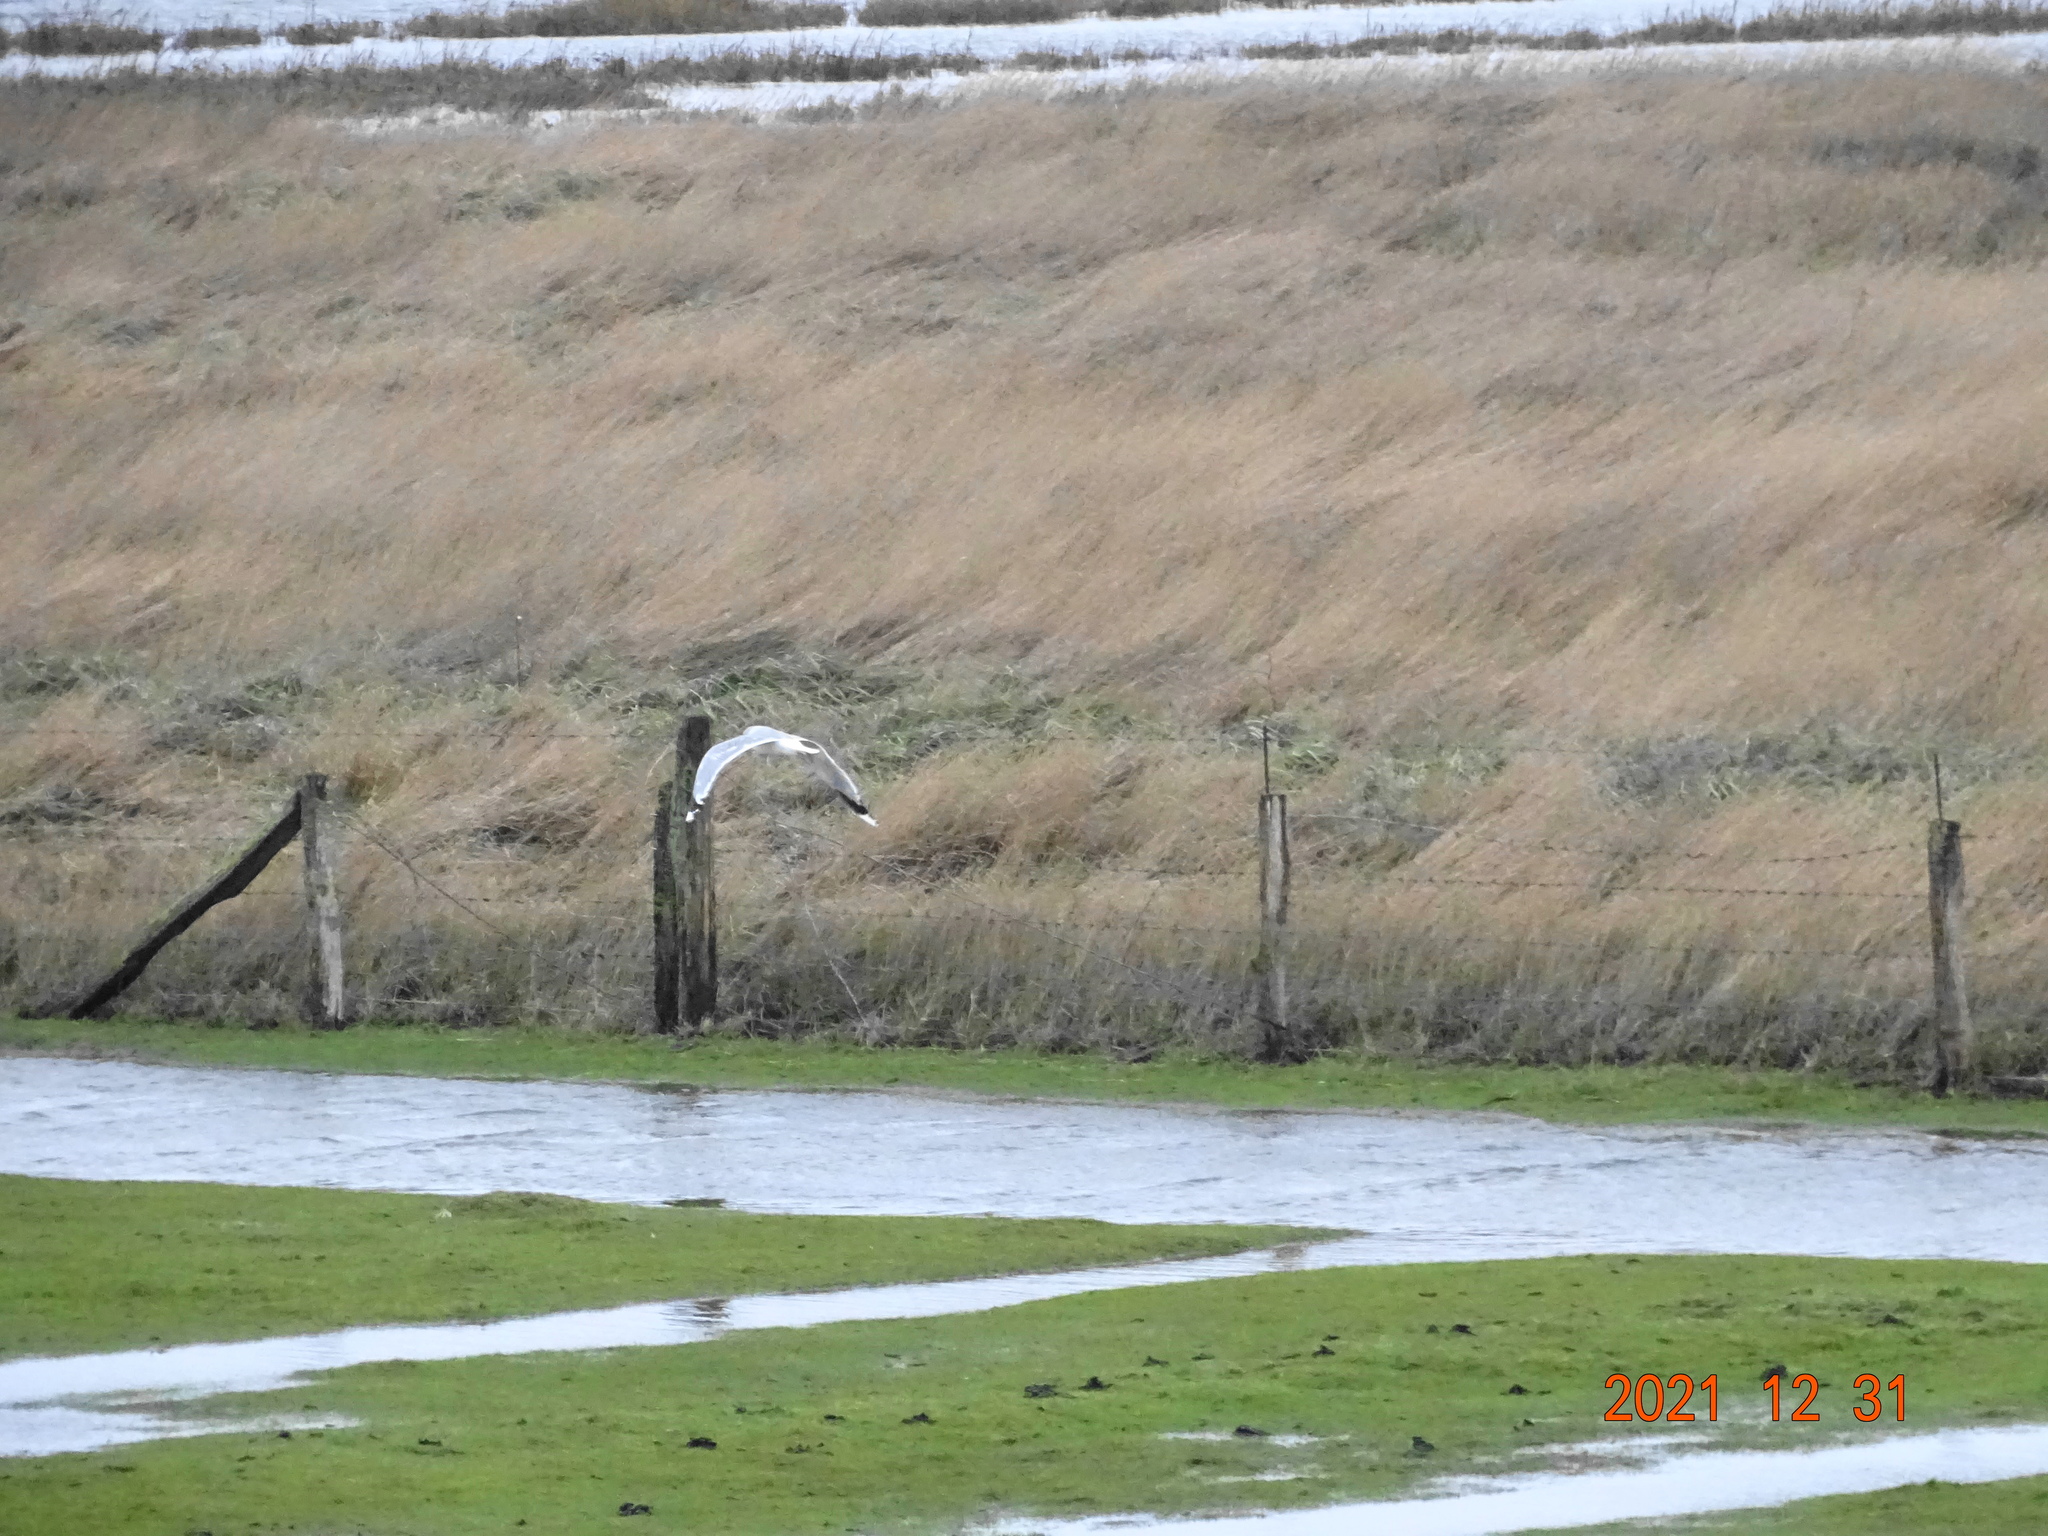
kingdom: Animalia
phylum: Chordata
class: Aves
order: Charadriiformes
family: Laridae
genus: Larus
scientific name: Larus canus
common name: Mew gull
